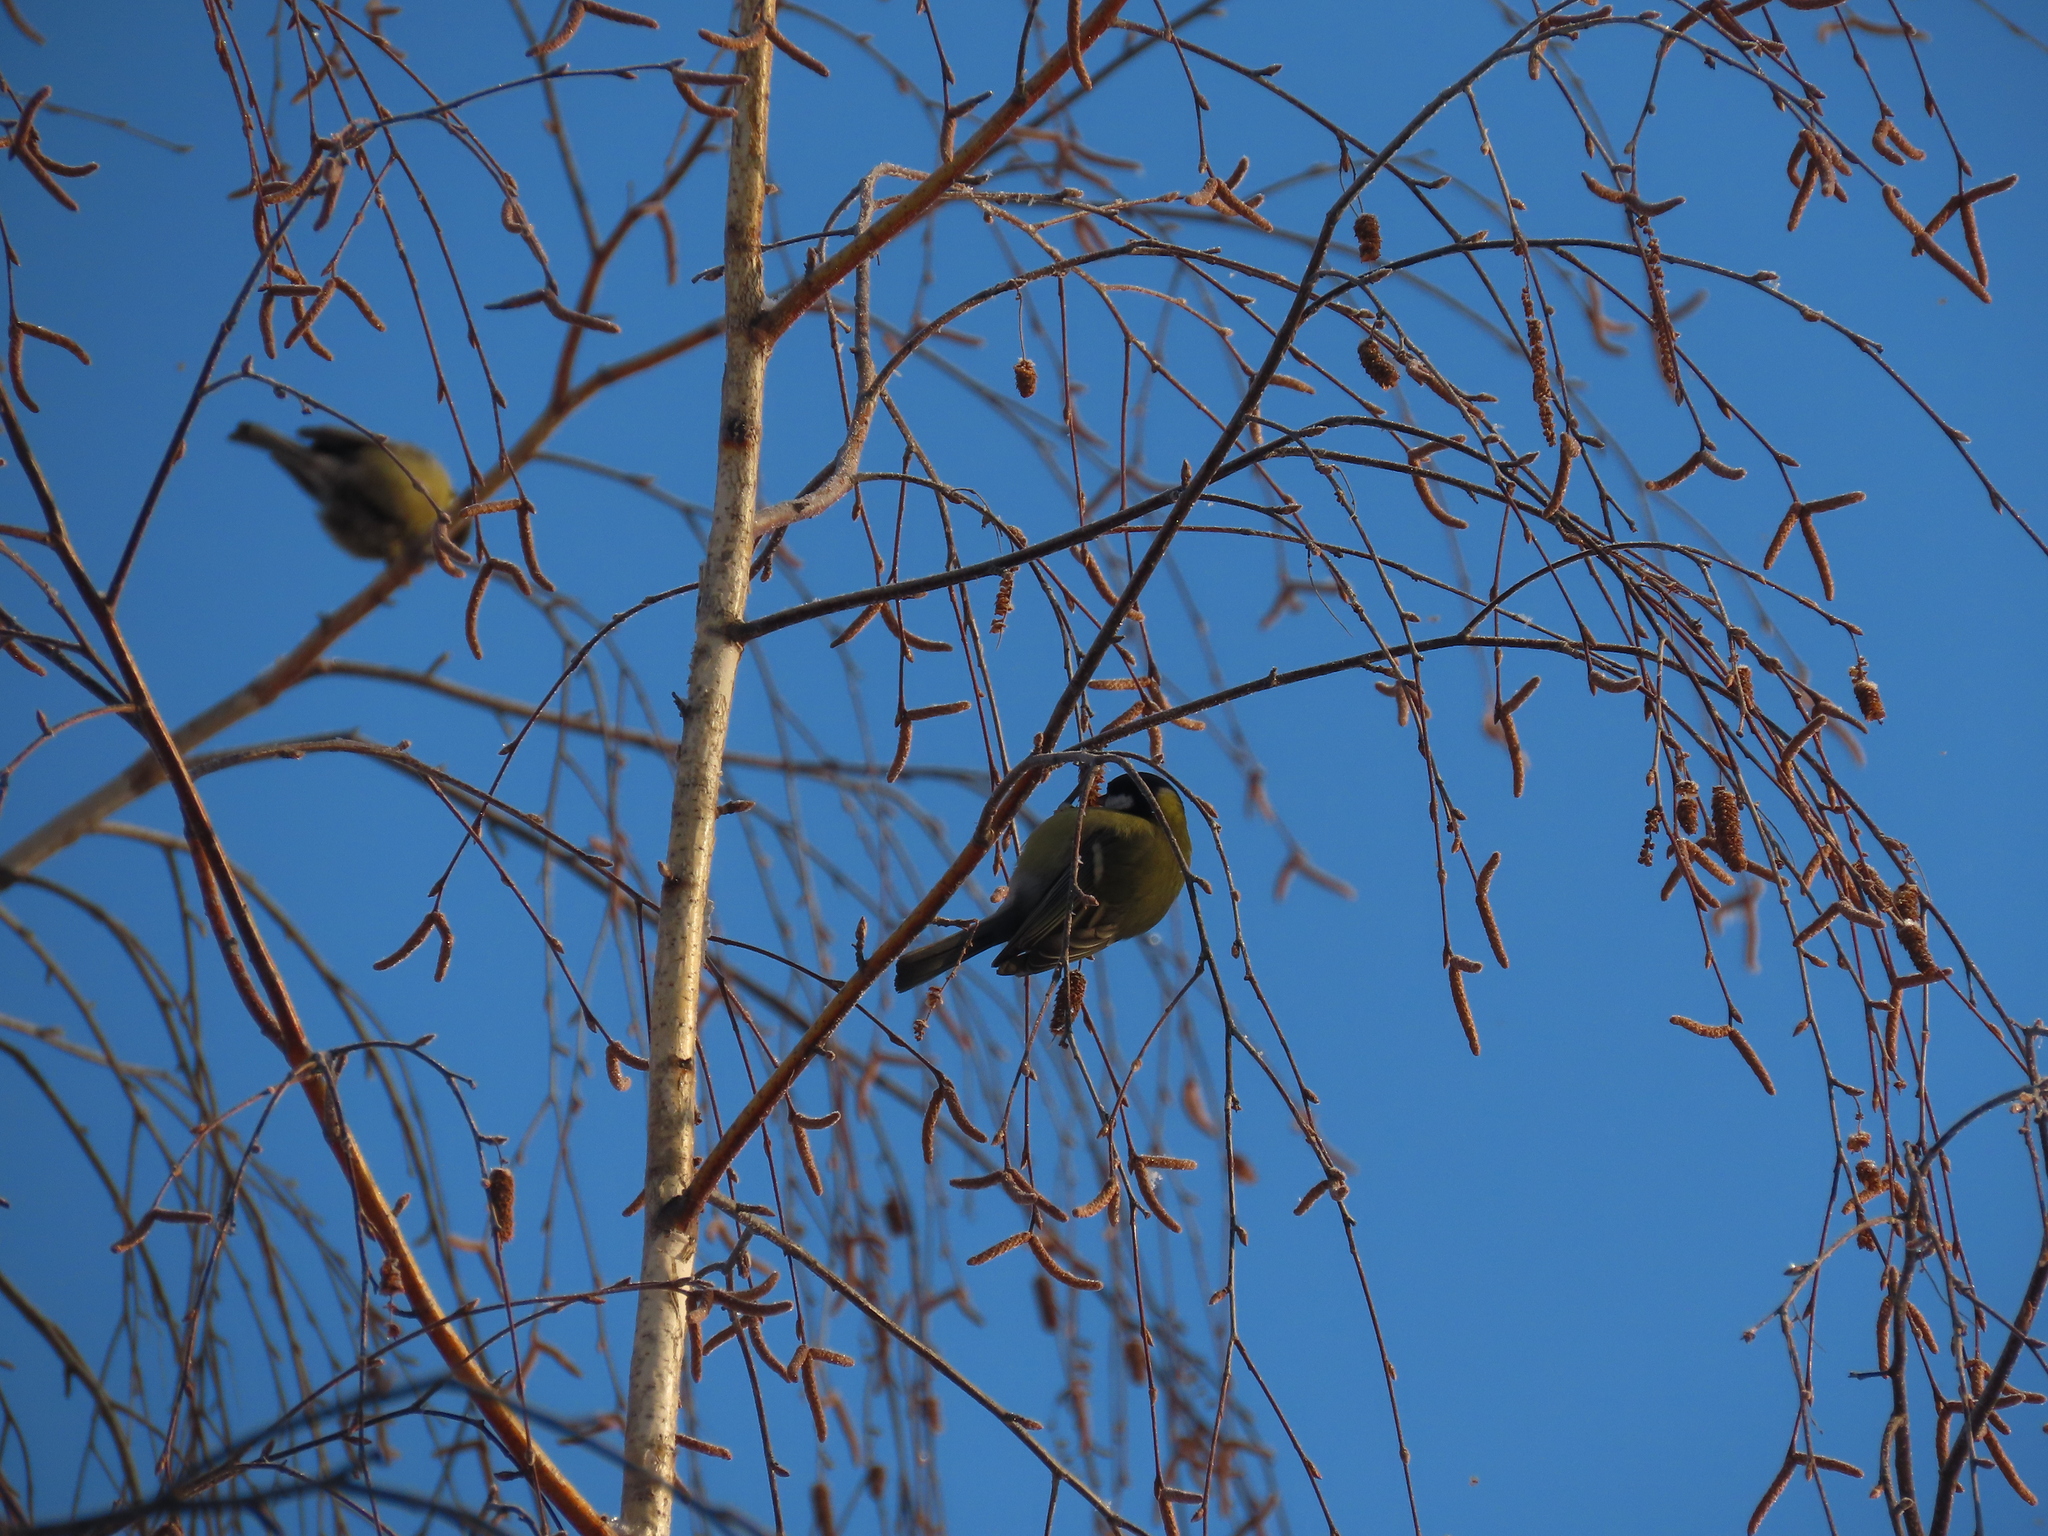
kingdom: Animalia
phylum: Chordata
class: Aves
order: Passeriformes
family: Paridae
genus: Parus
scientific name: Parus major
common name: Great tit
